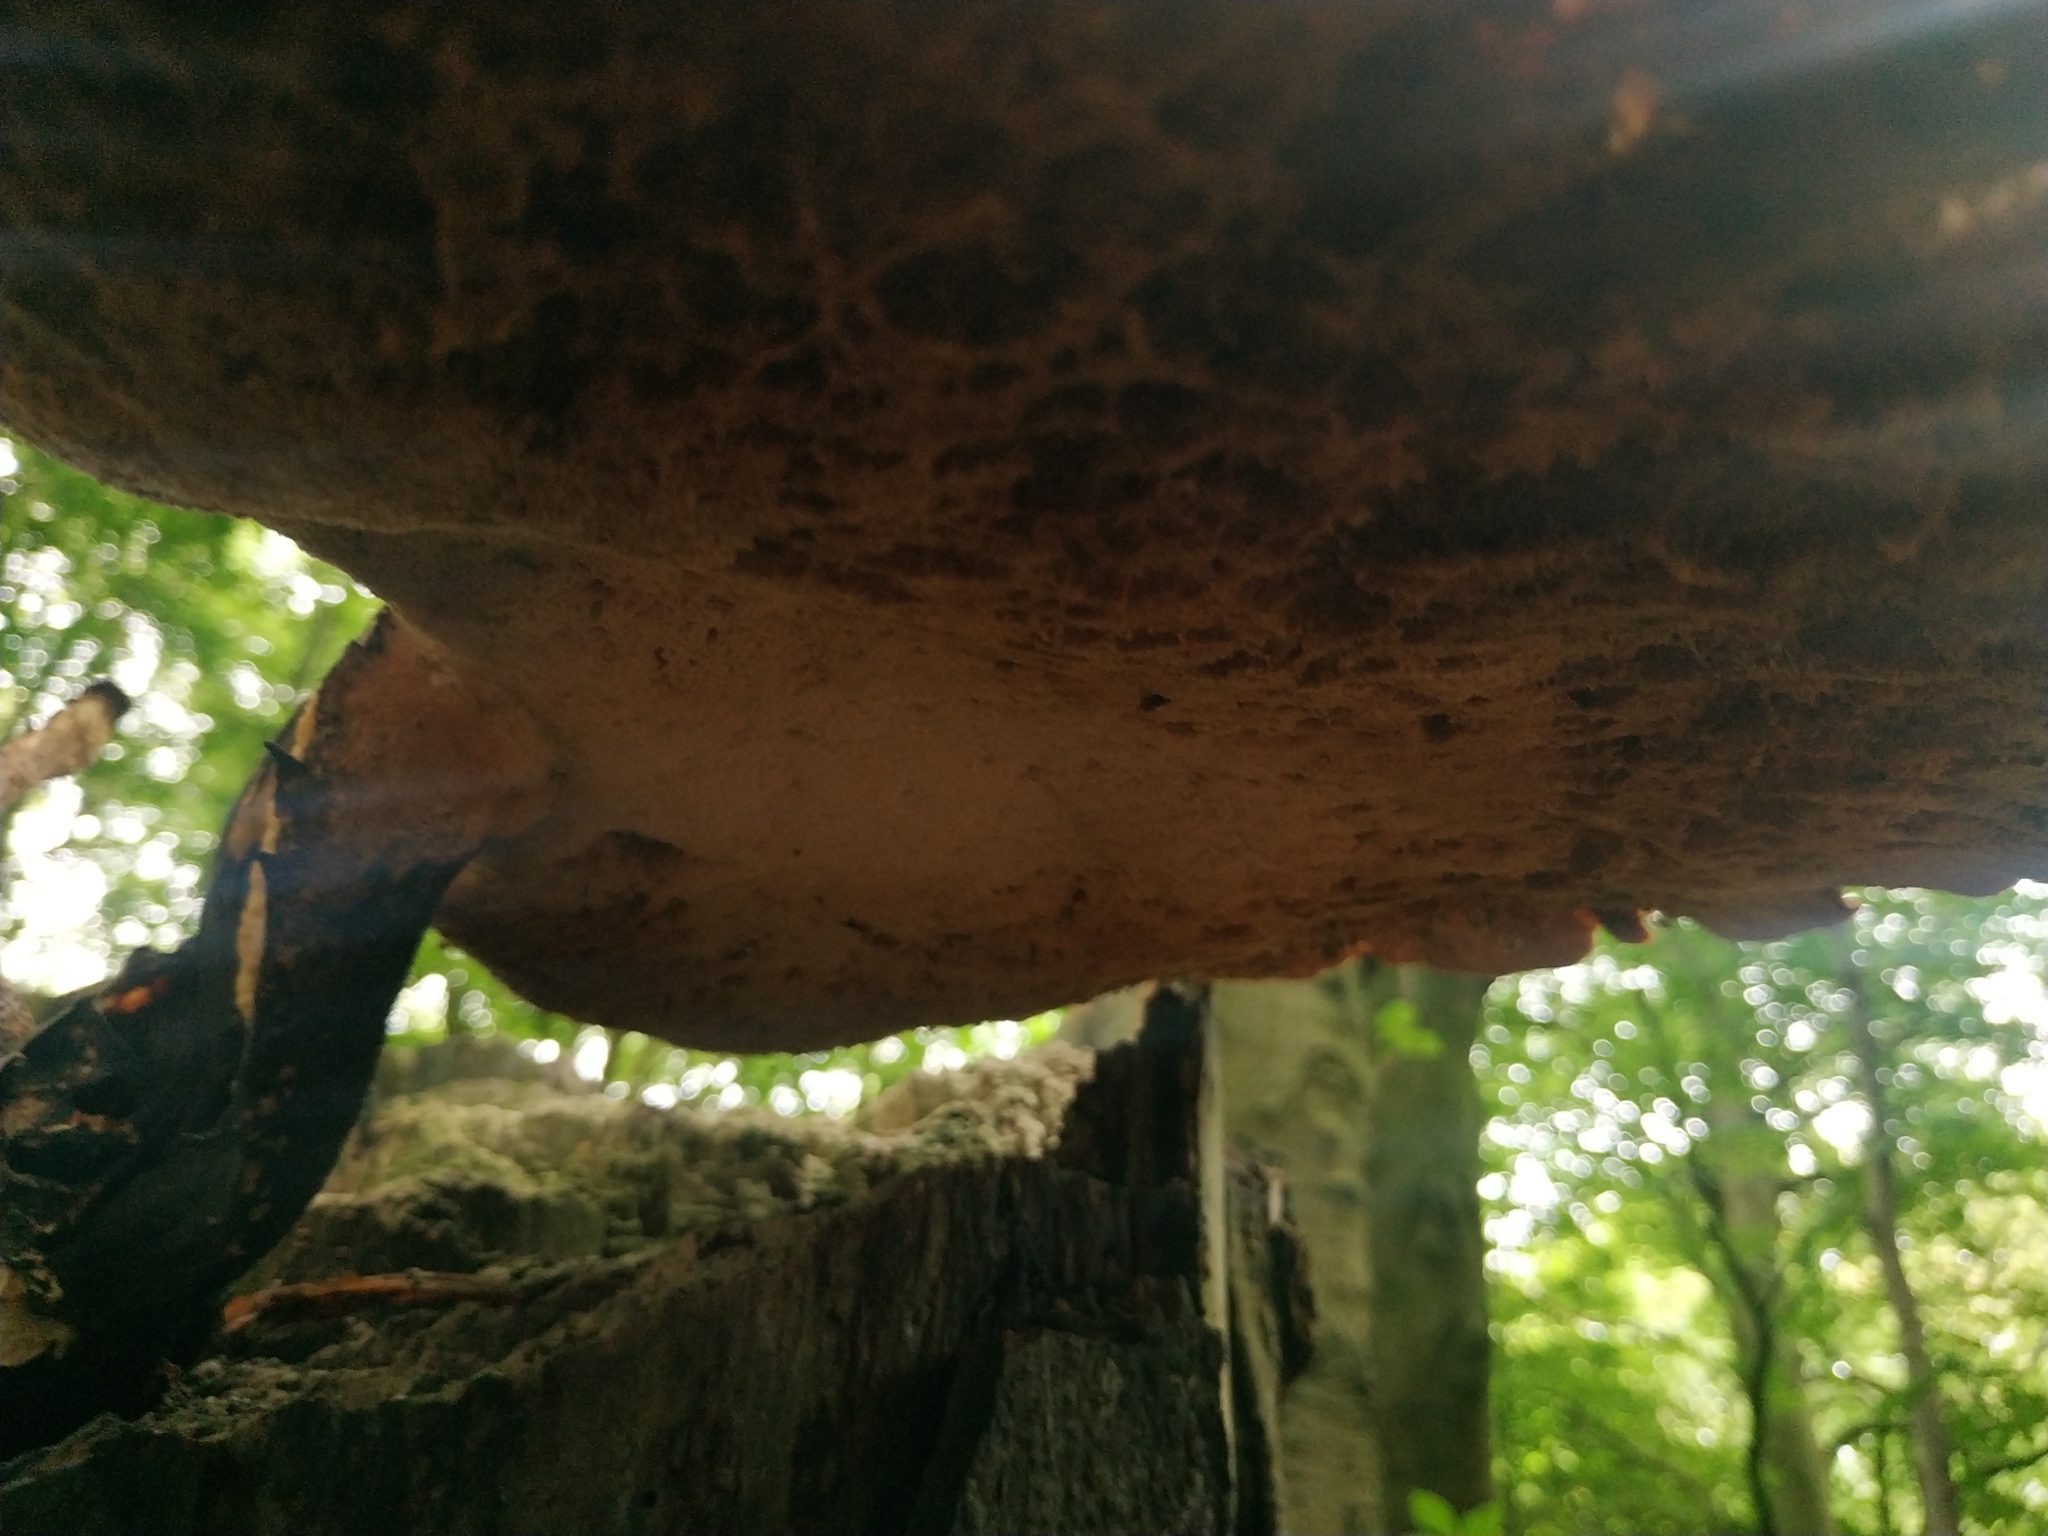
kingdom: Fungi
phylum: Basidiomycota
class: Agaricomycetes
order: Polyporales
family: Polyporaceae
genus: Cerioporus
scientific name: Cerioporus squamosus
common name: Dryad's saddle
